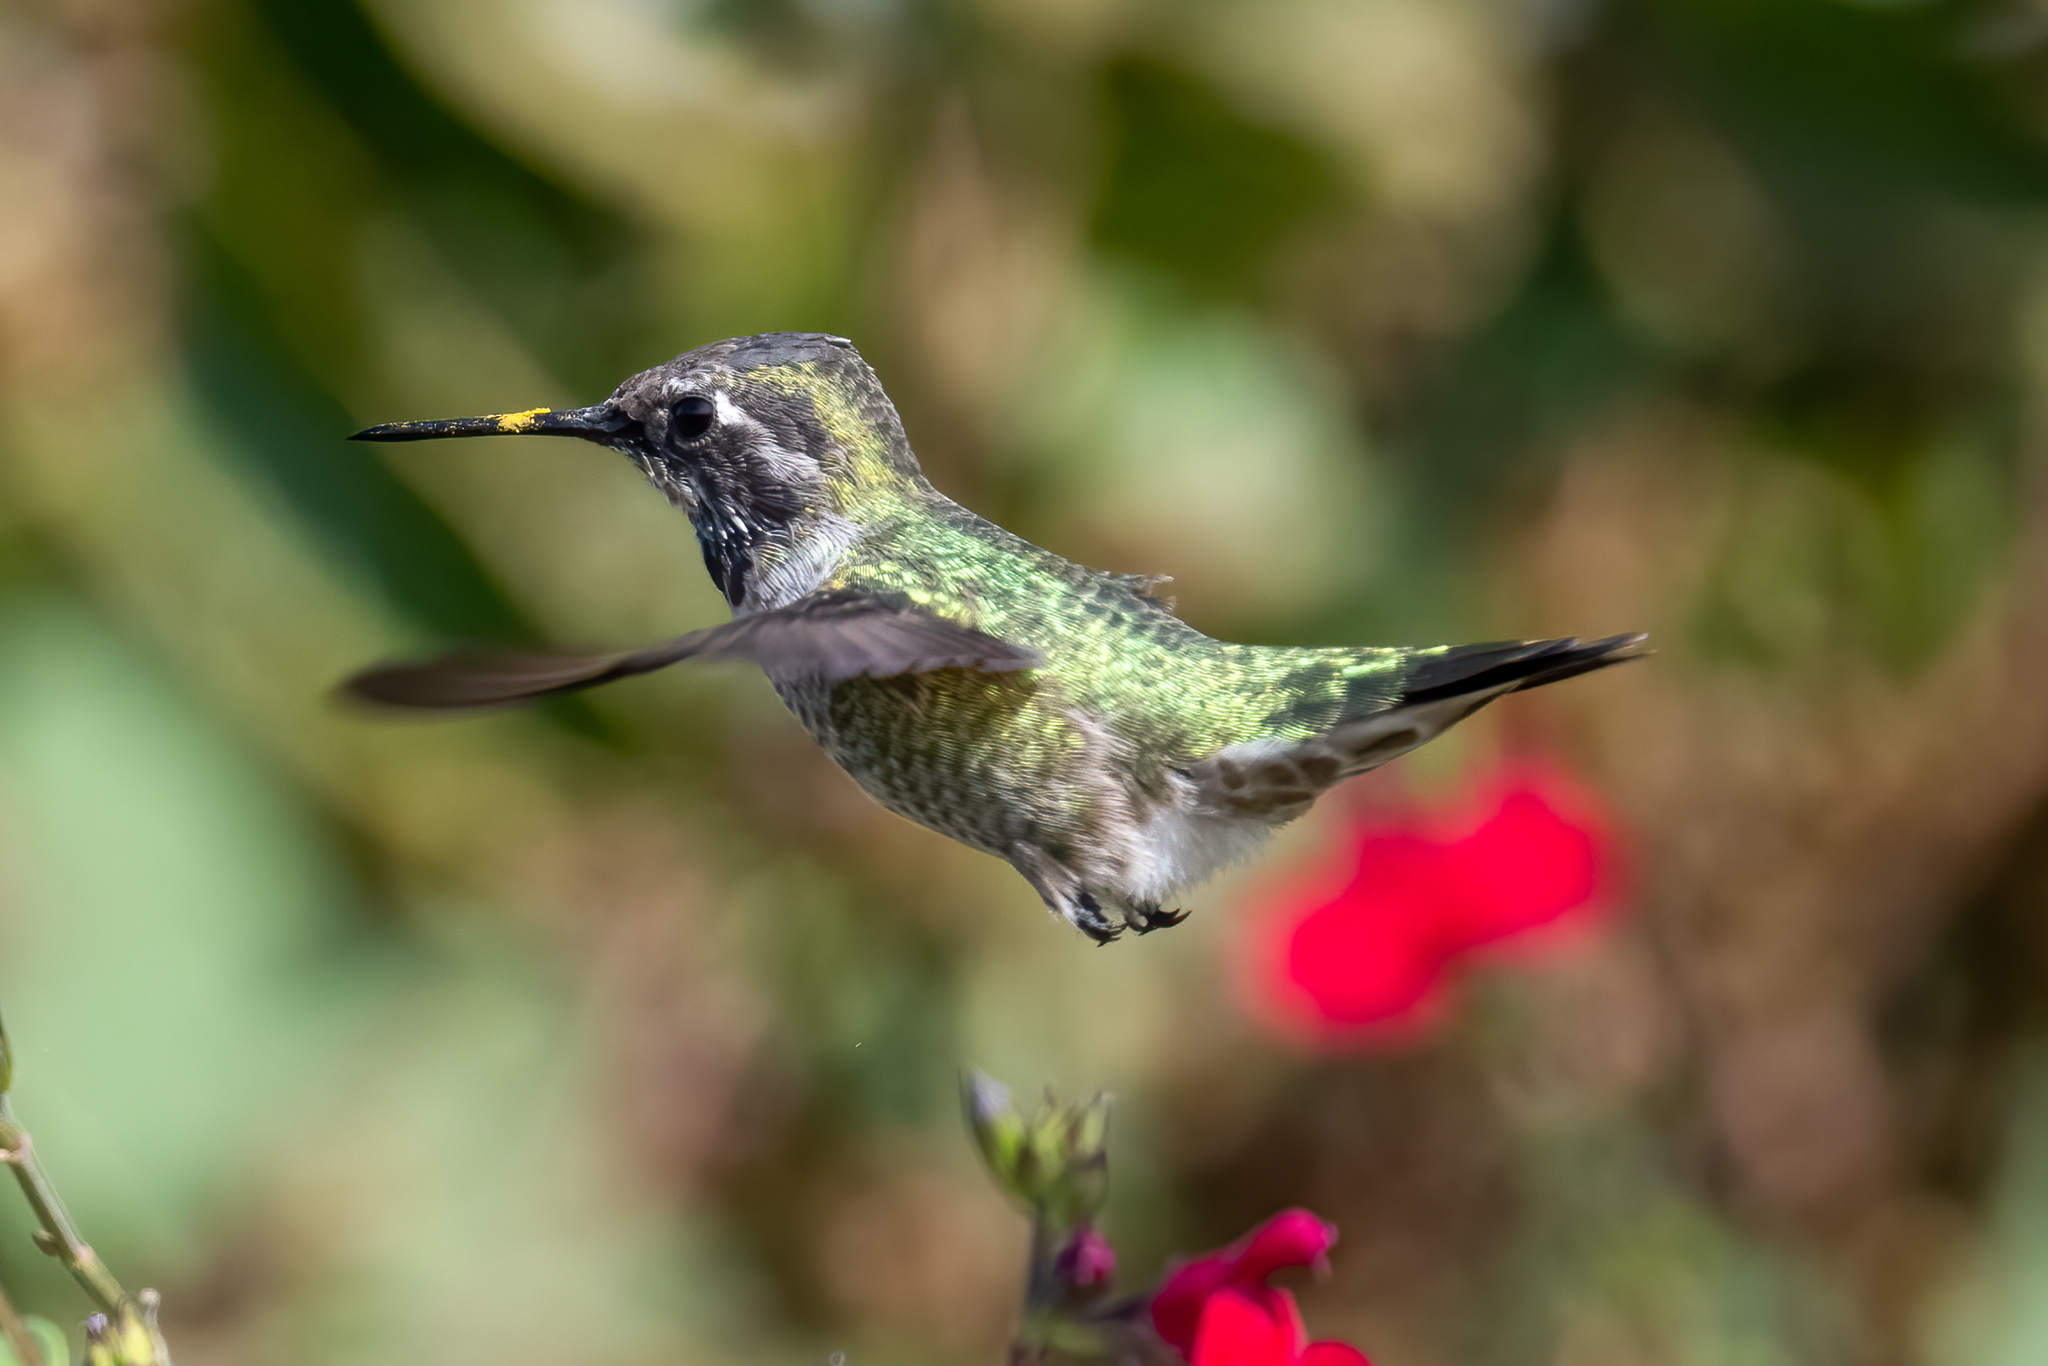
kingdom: Animalia
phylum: Chordata
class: Aves
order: Apodiformes
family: Trochilidae
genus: Calypte
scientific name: Calypte anna
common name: Anna's hummingbird
